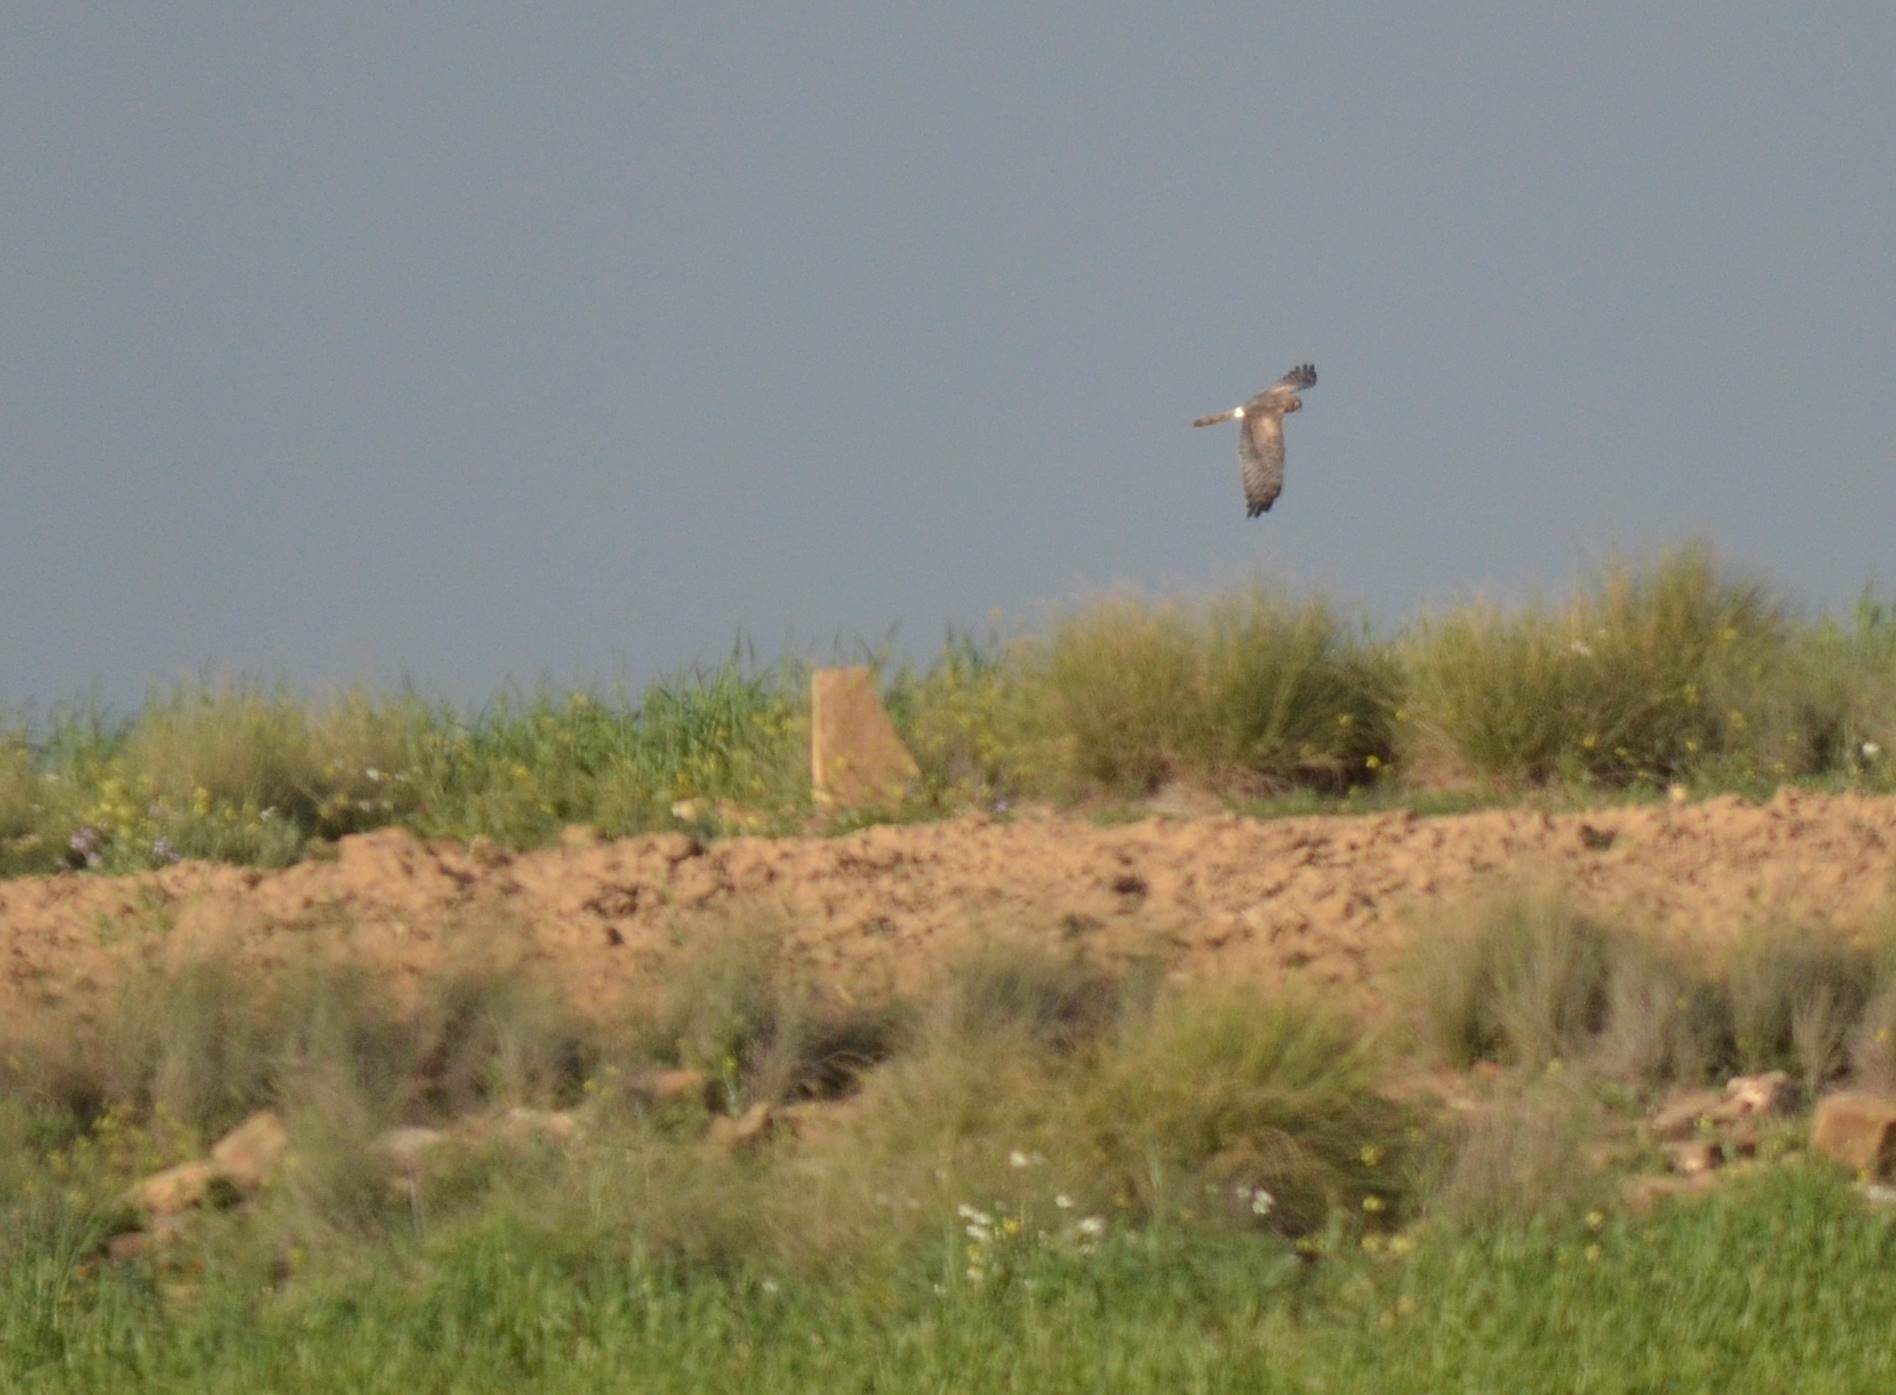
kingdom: Animalia
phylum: Chordata
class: Aves
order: Accipitriformes
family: Accipitridae
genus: Circus
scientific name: Circus pygargus
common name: Montagu's harrier
